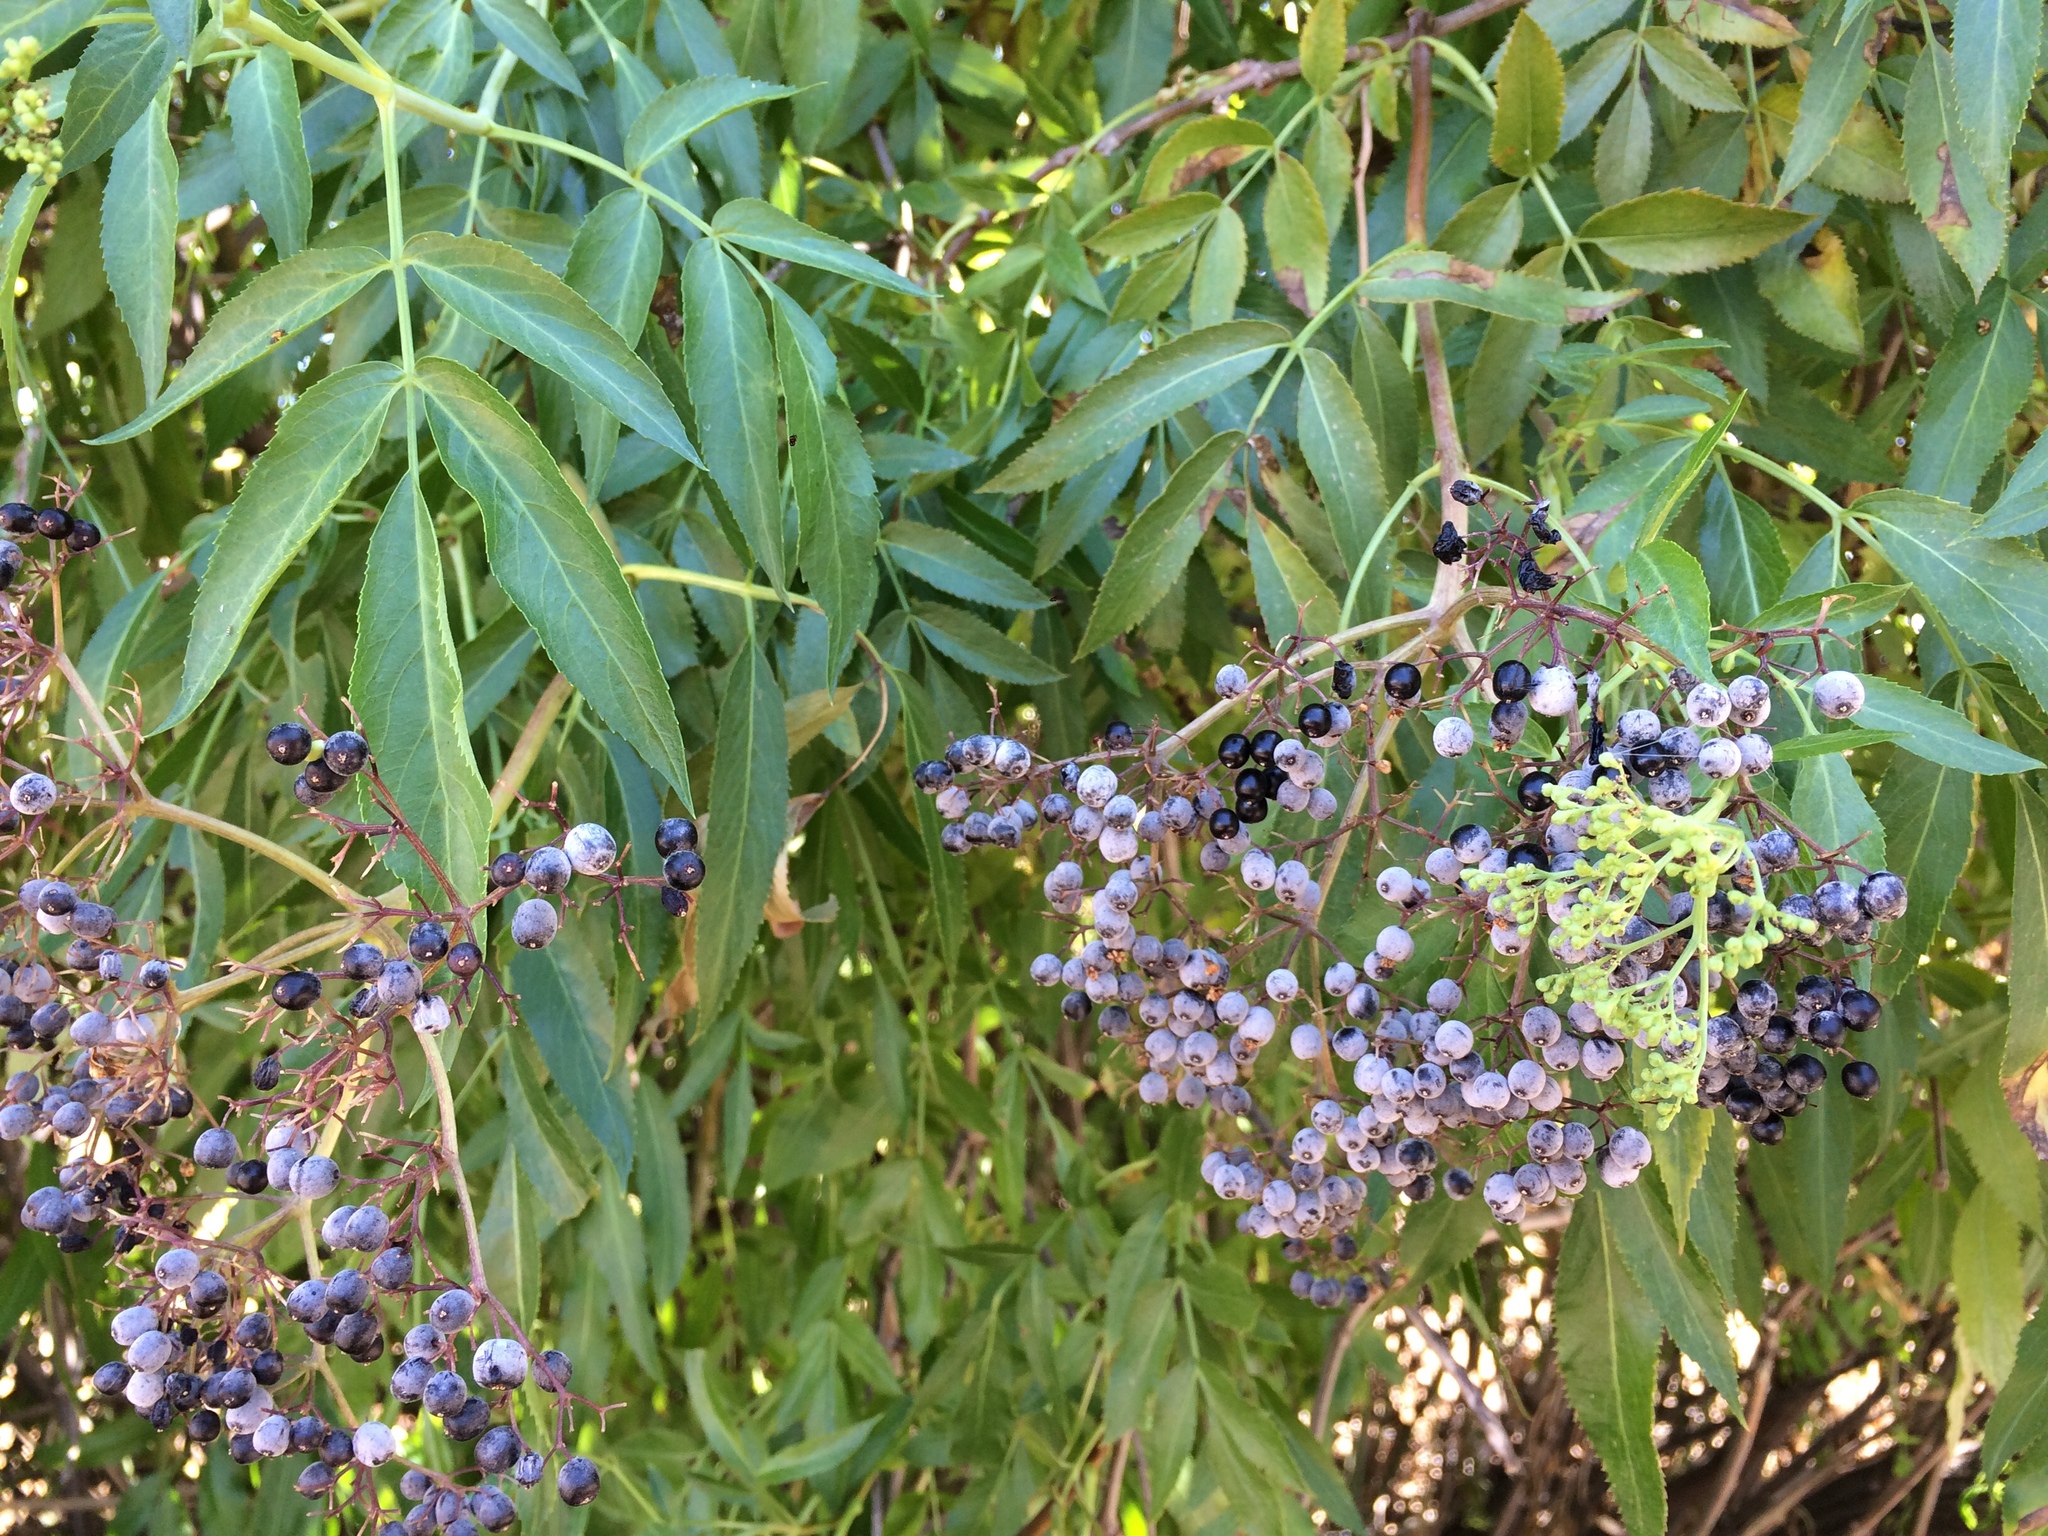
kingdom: Plantae
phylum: Tracheophyta
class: Magnoliopsida
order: Dipsacales
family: Viburnaceae
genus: Sambucus
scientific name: Sambucus cerulea
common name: Blue elder
